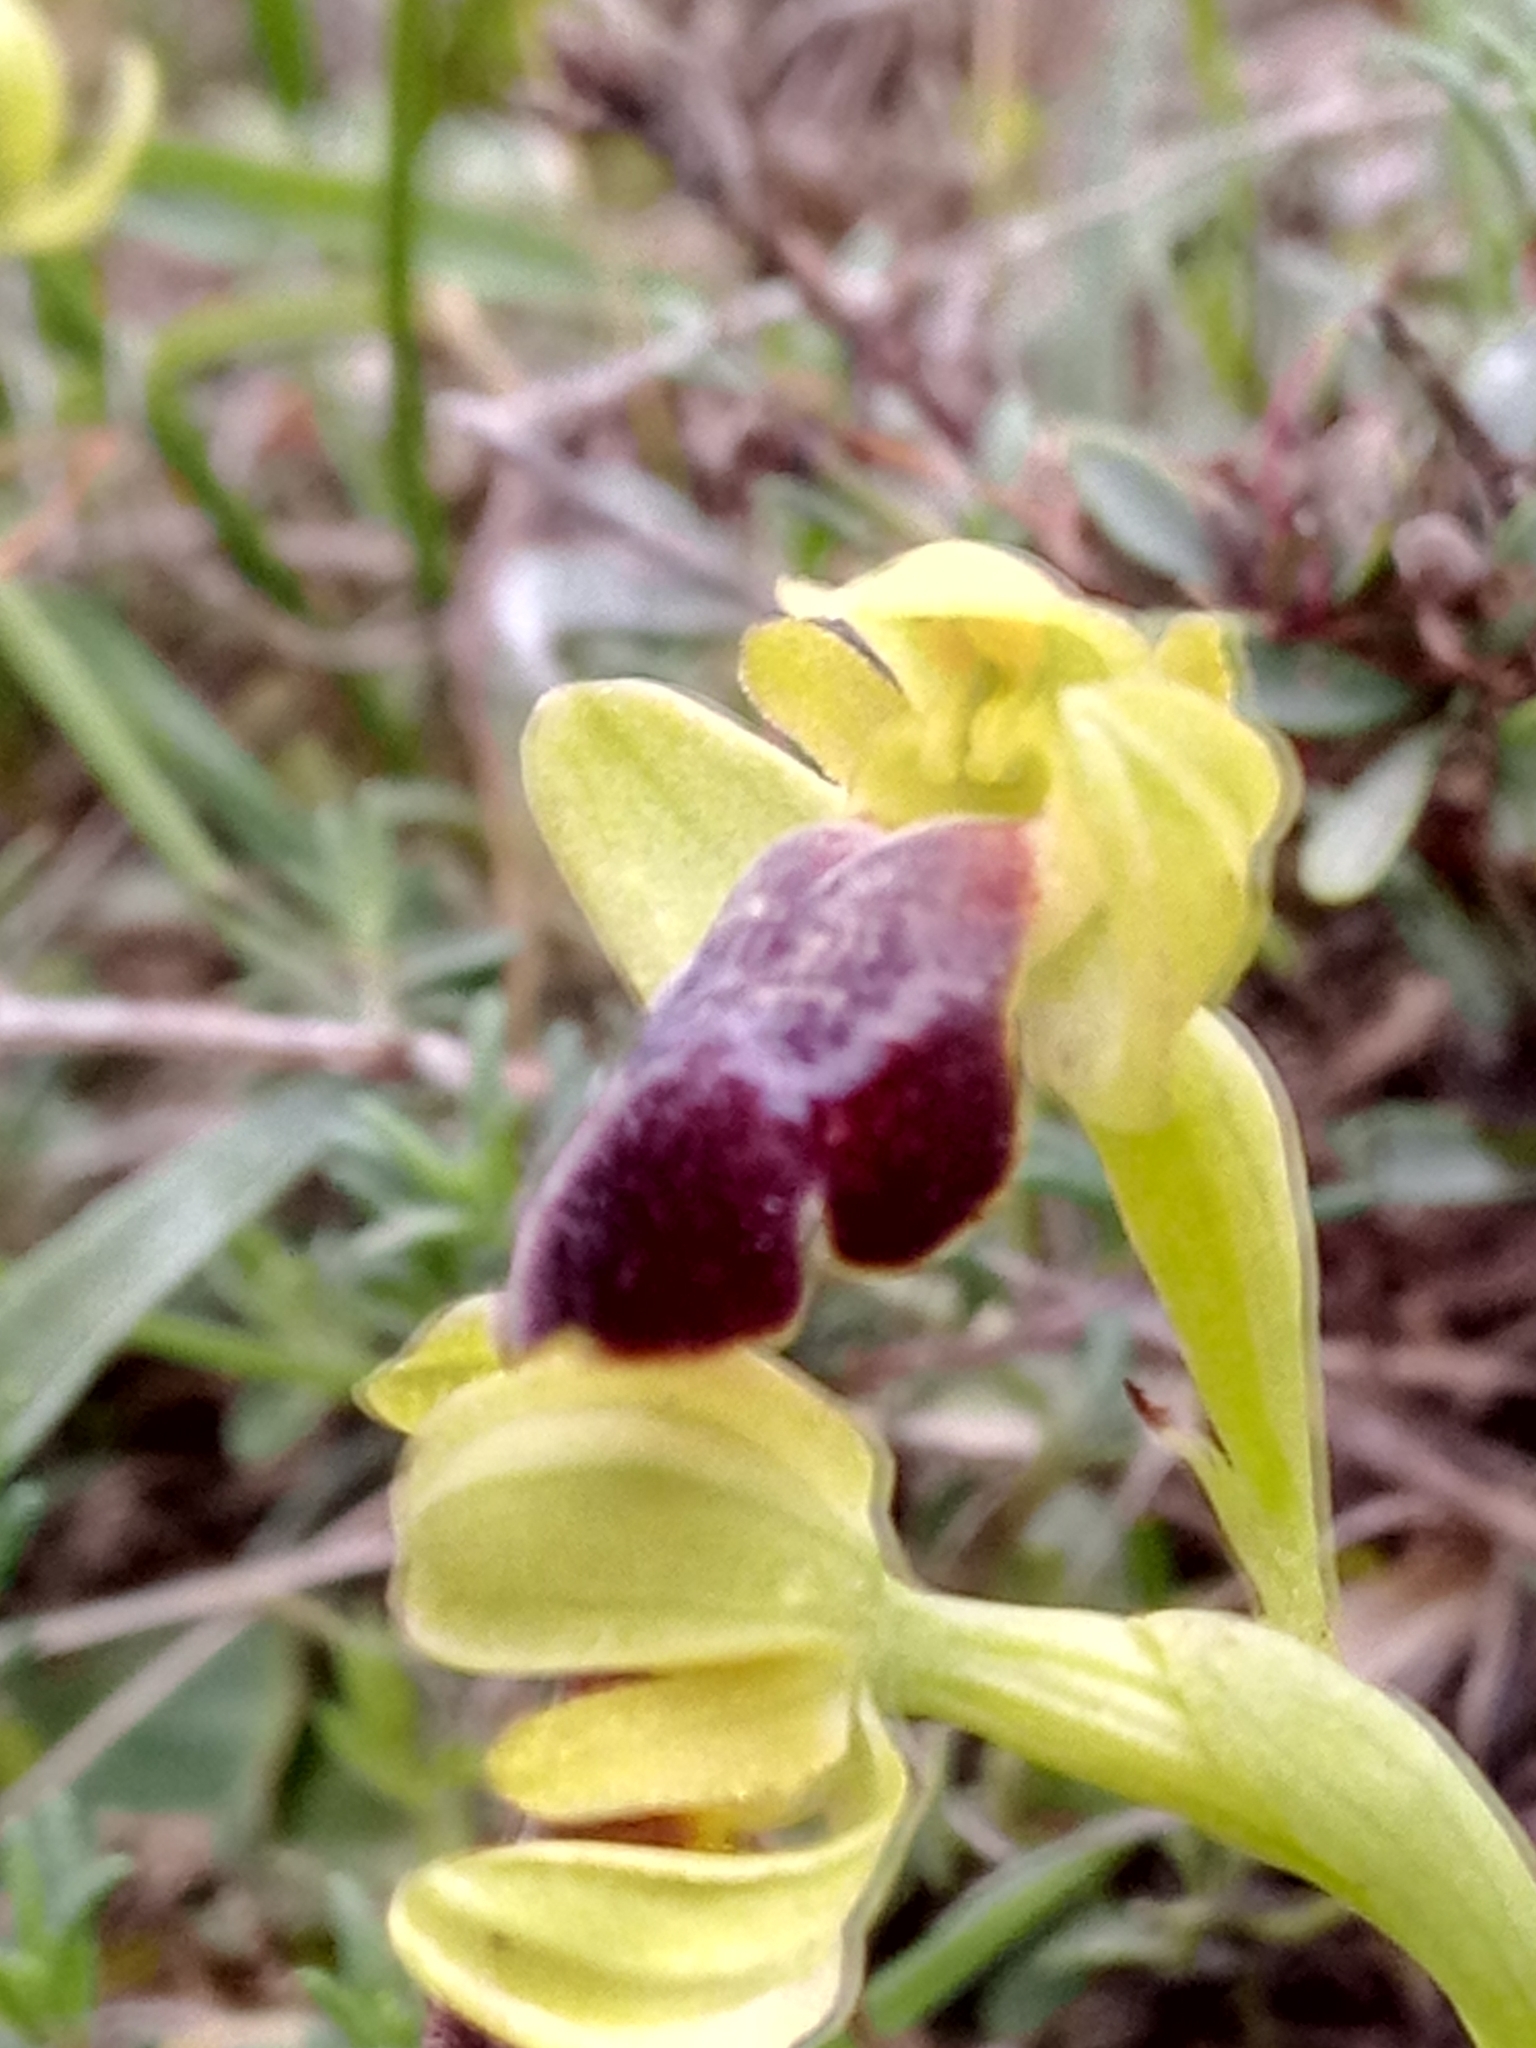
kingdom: Plantae
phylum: Tracheophyta
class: Liliopsida
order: Asparagales
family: Orchidaceae
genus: Ophrys
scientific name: Ophrys fusca
